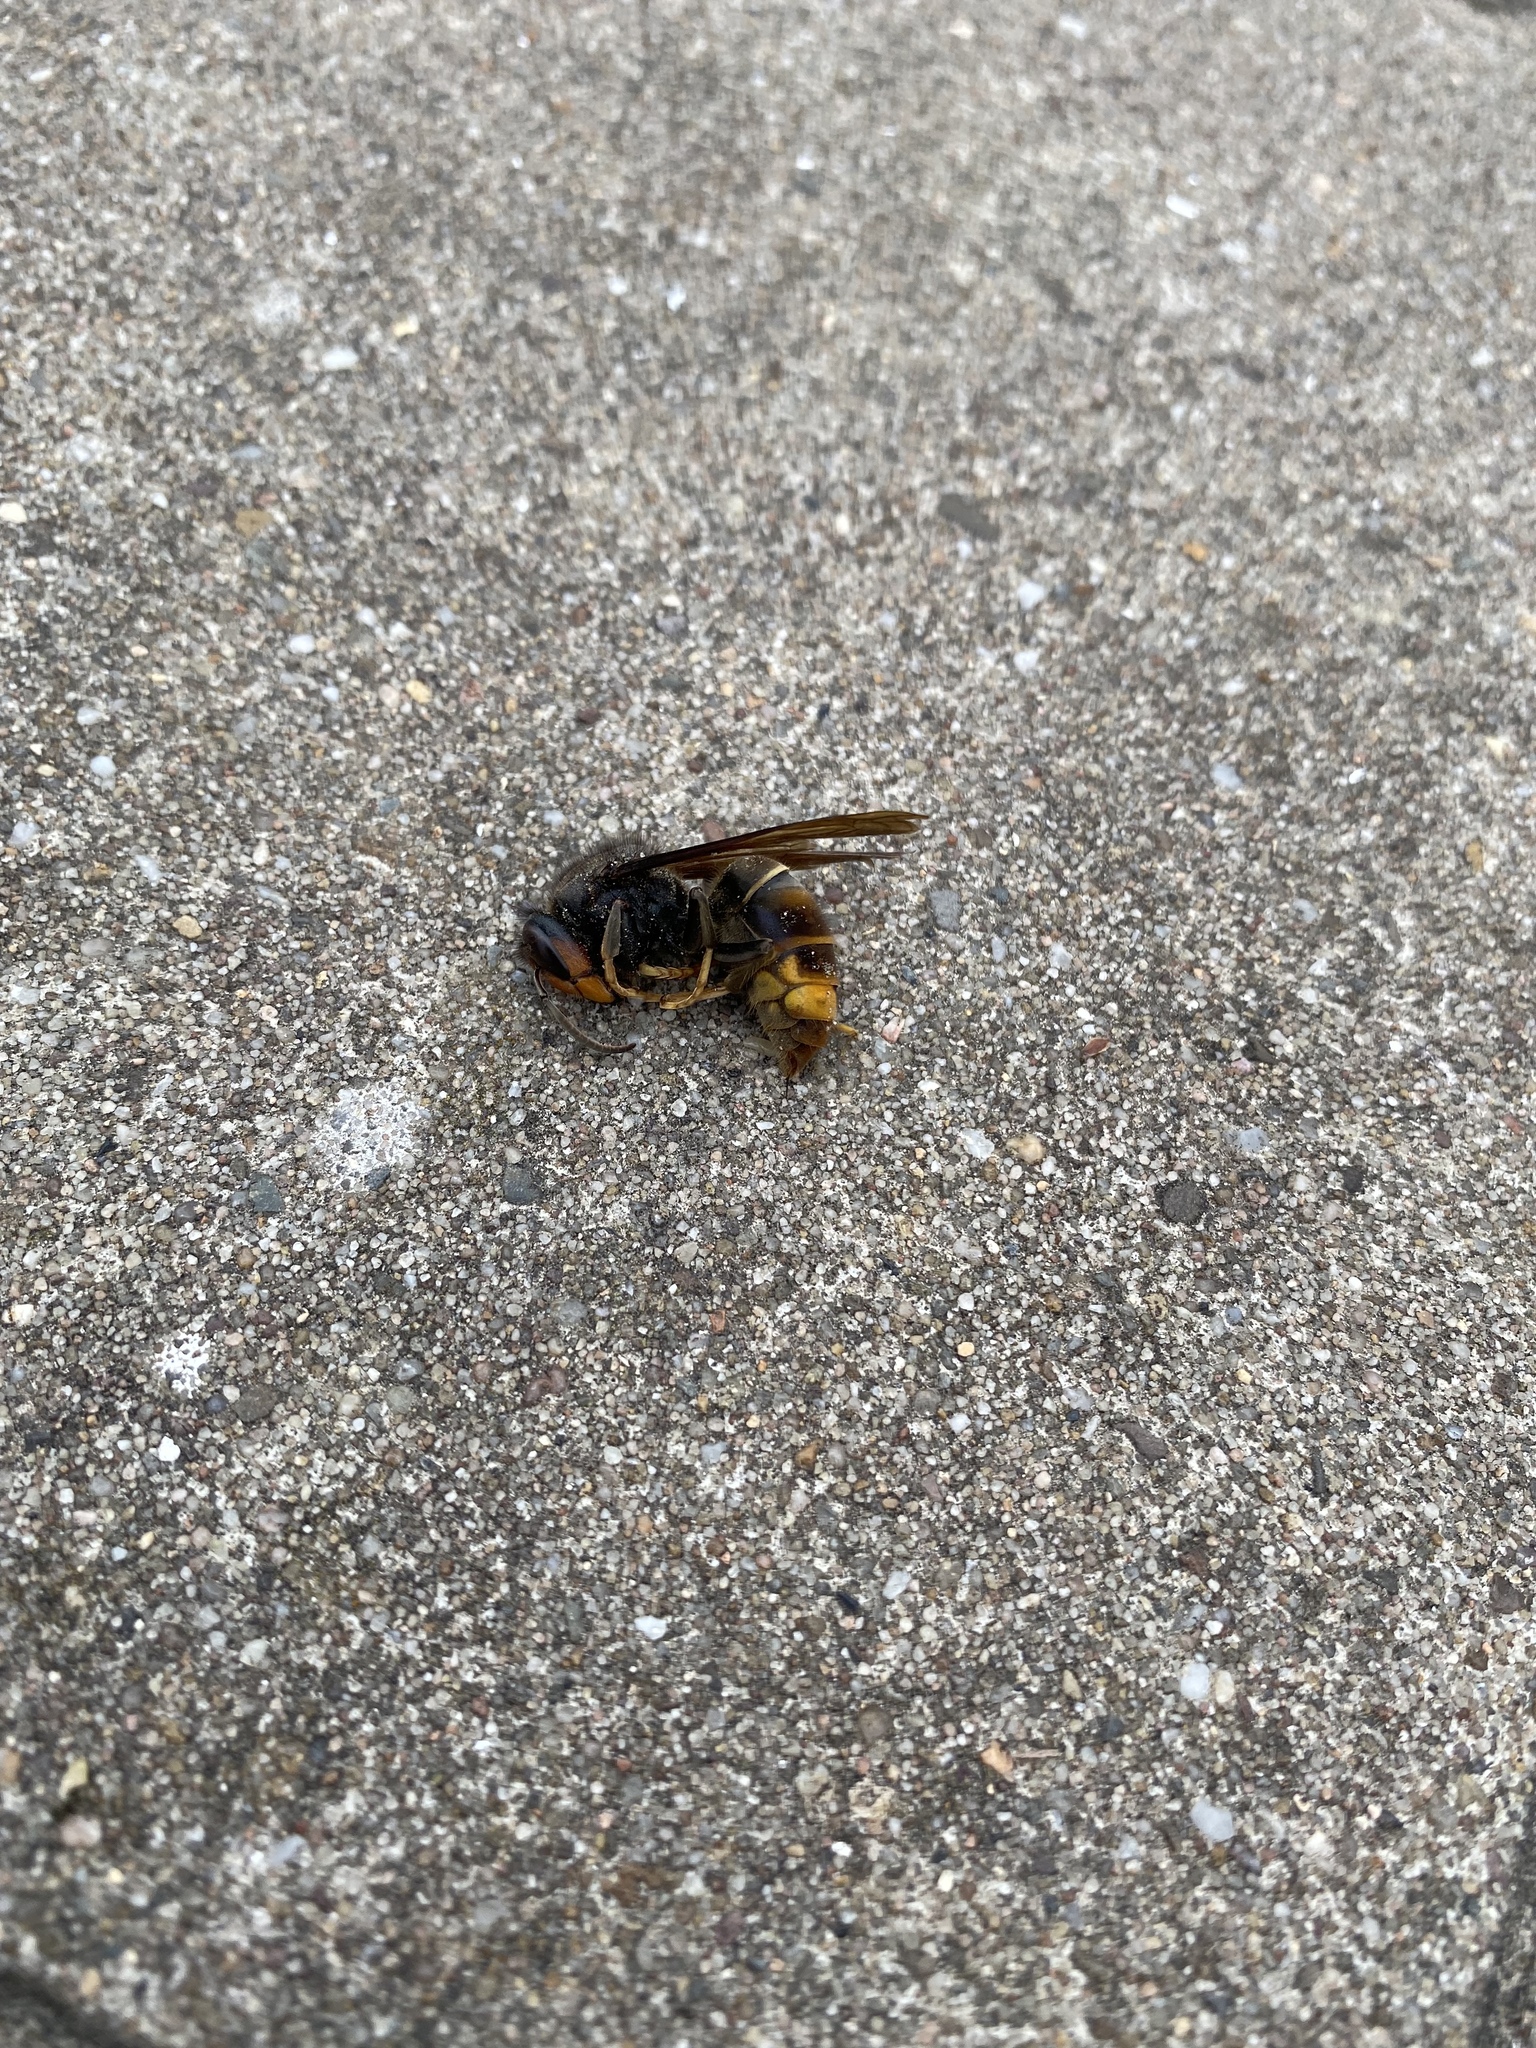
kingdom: Animalia
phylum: Arthropoda
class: Insecta
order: Hymenoptera
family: Vespidae
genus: Vespa
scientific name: Vespa velutina
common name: Asian hornet
